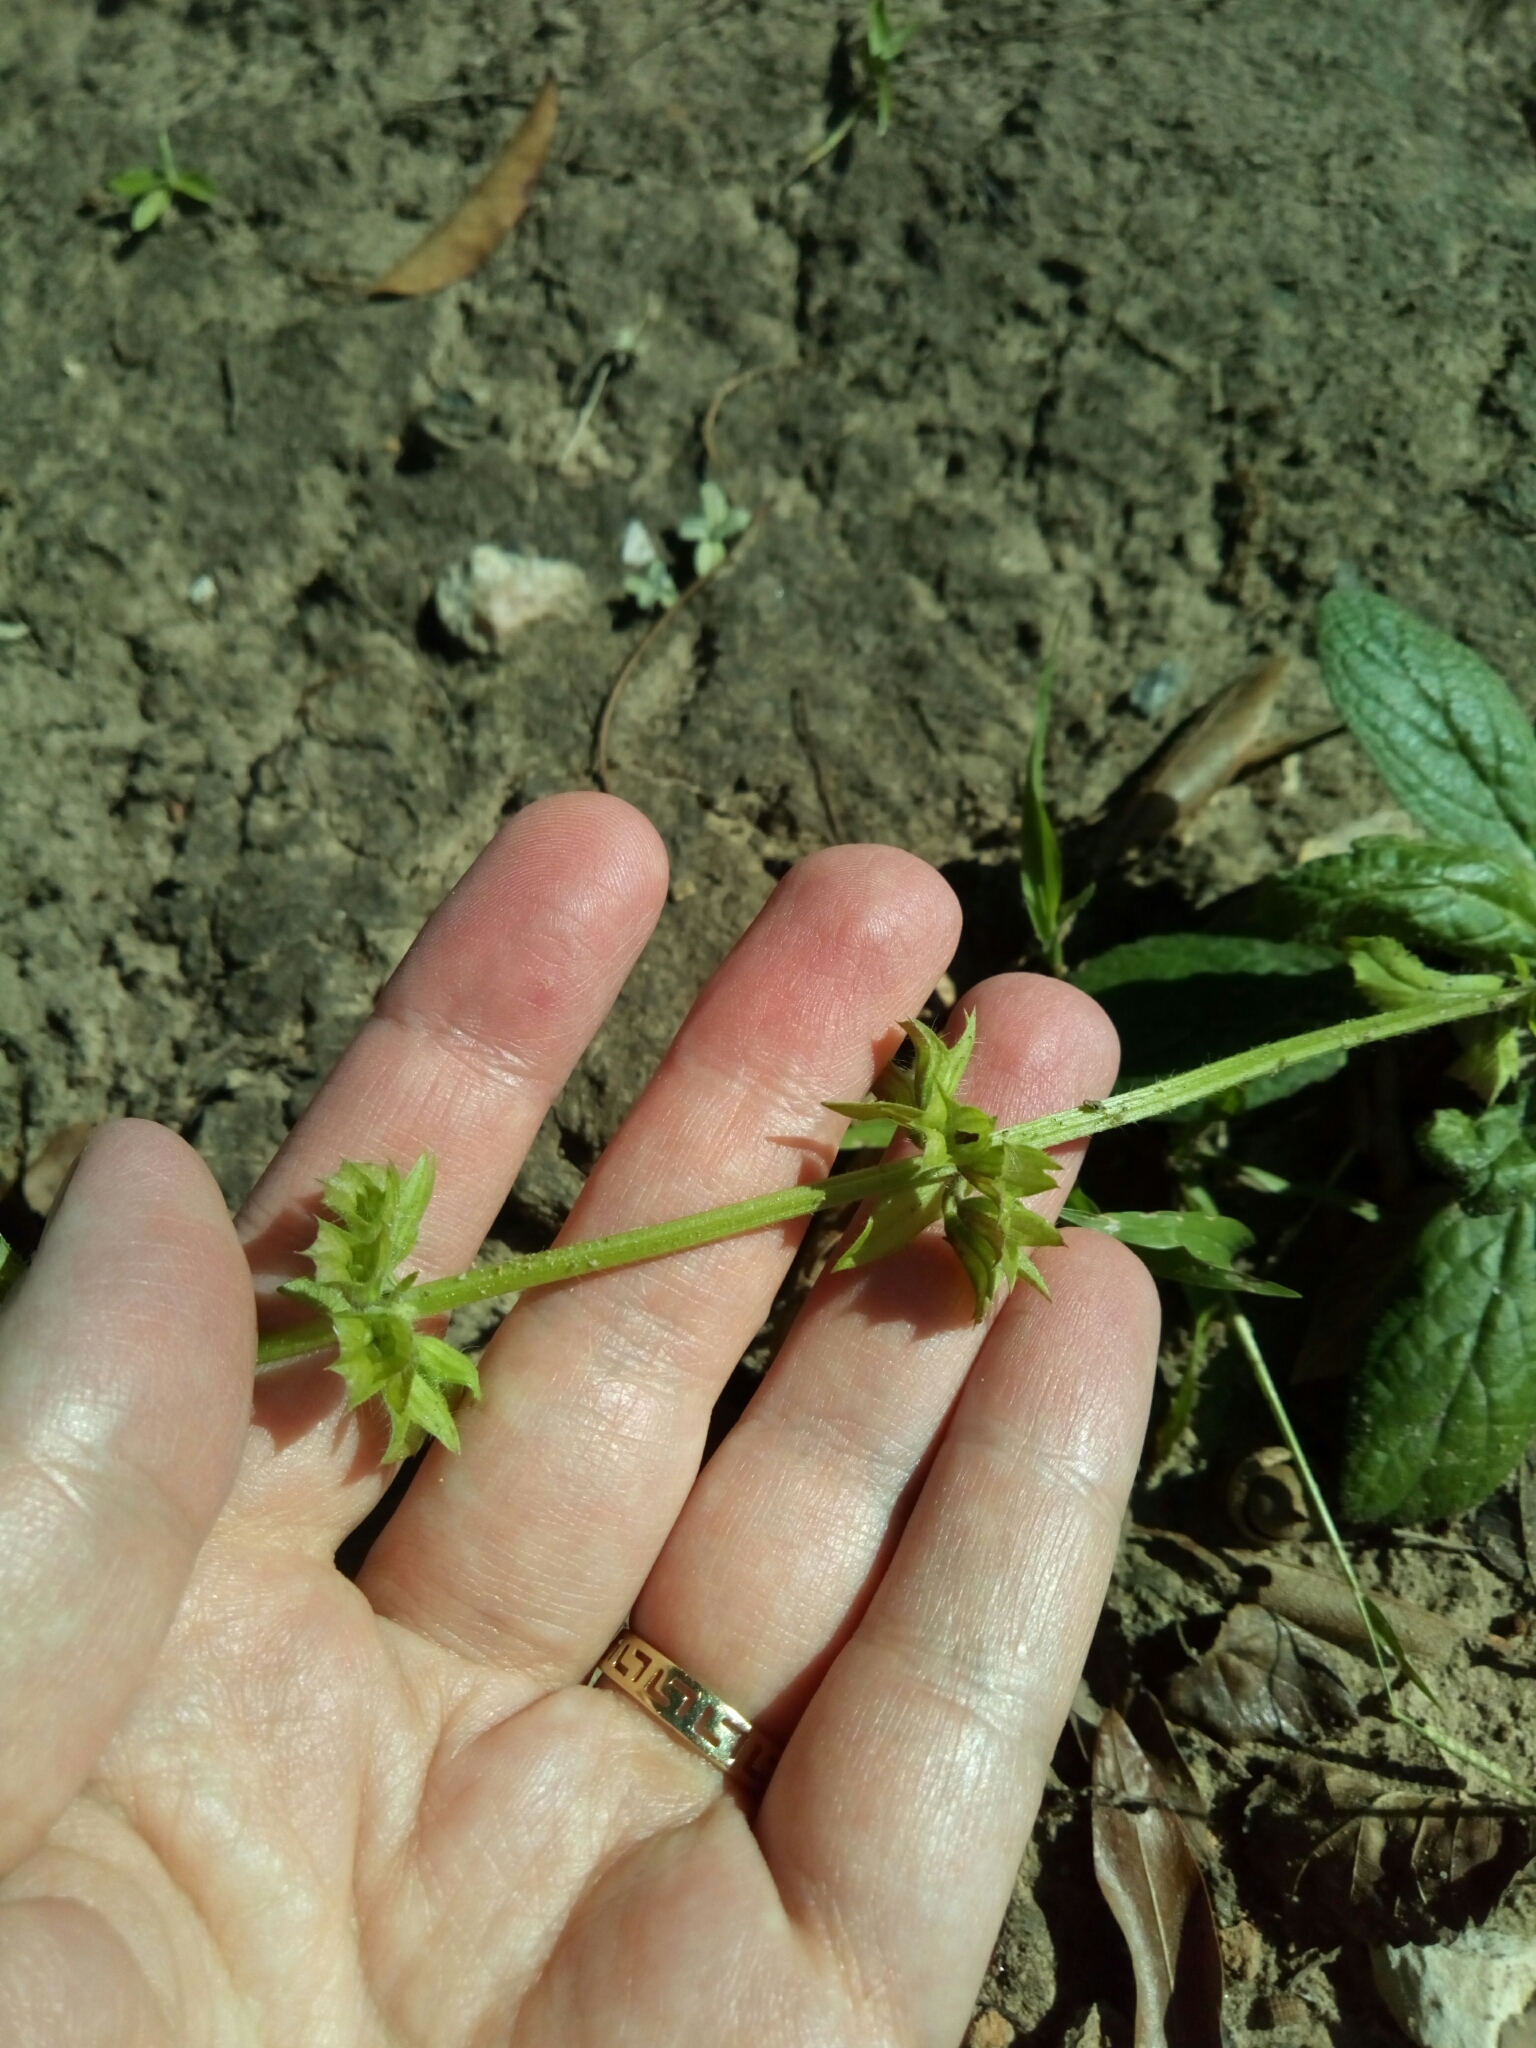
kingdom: Plantae
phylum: Tracheophyta
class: Magnoliopsida
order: Lamiales
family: Lamiaceae
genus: Salvia
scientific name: Salvia lyrata
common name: Cancerweed
